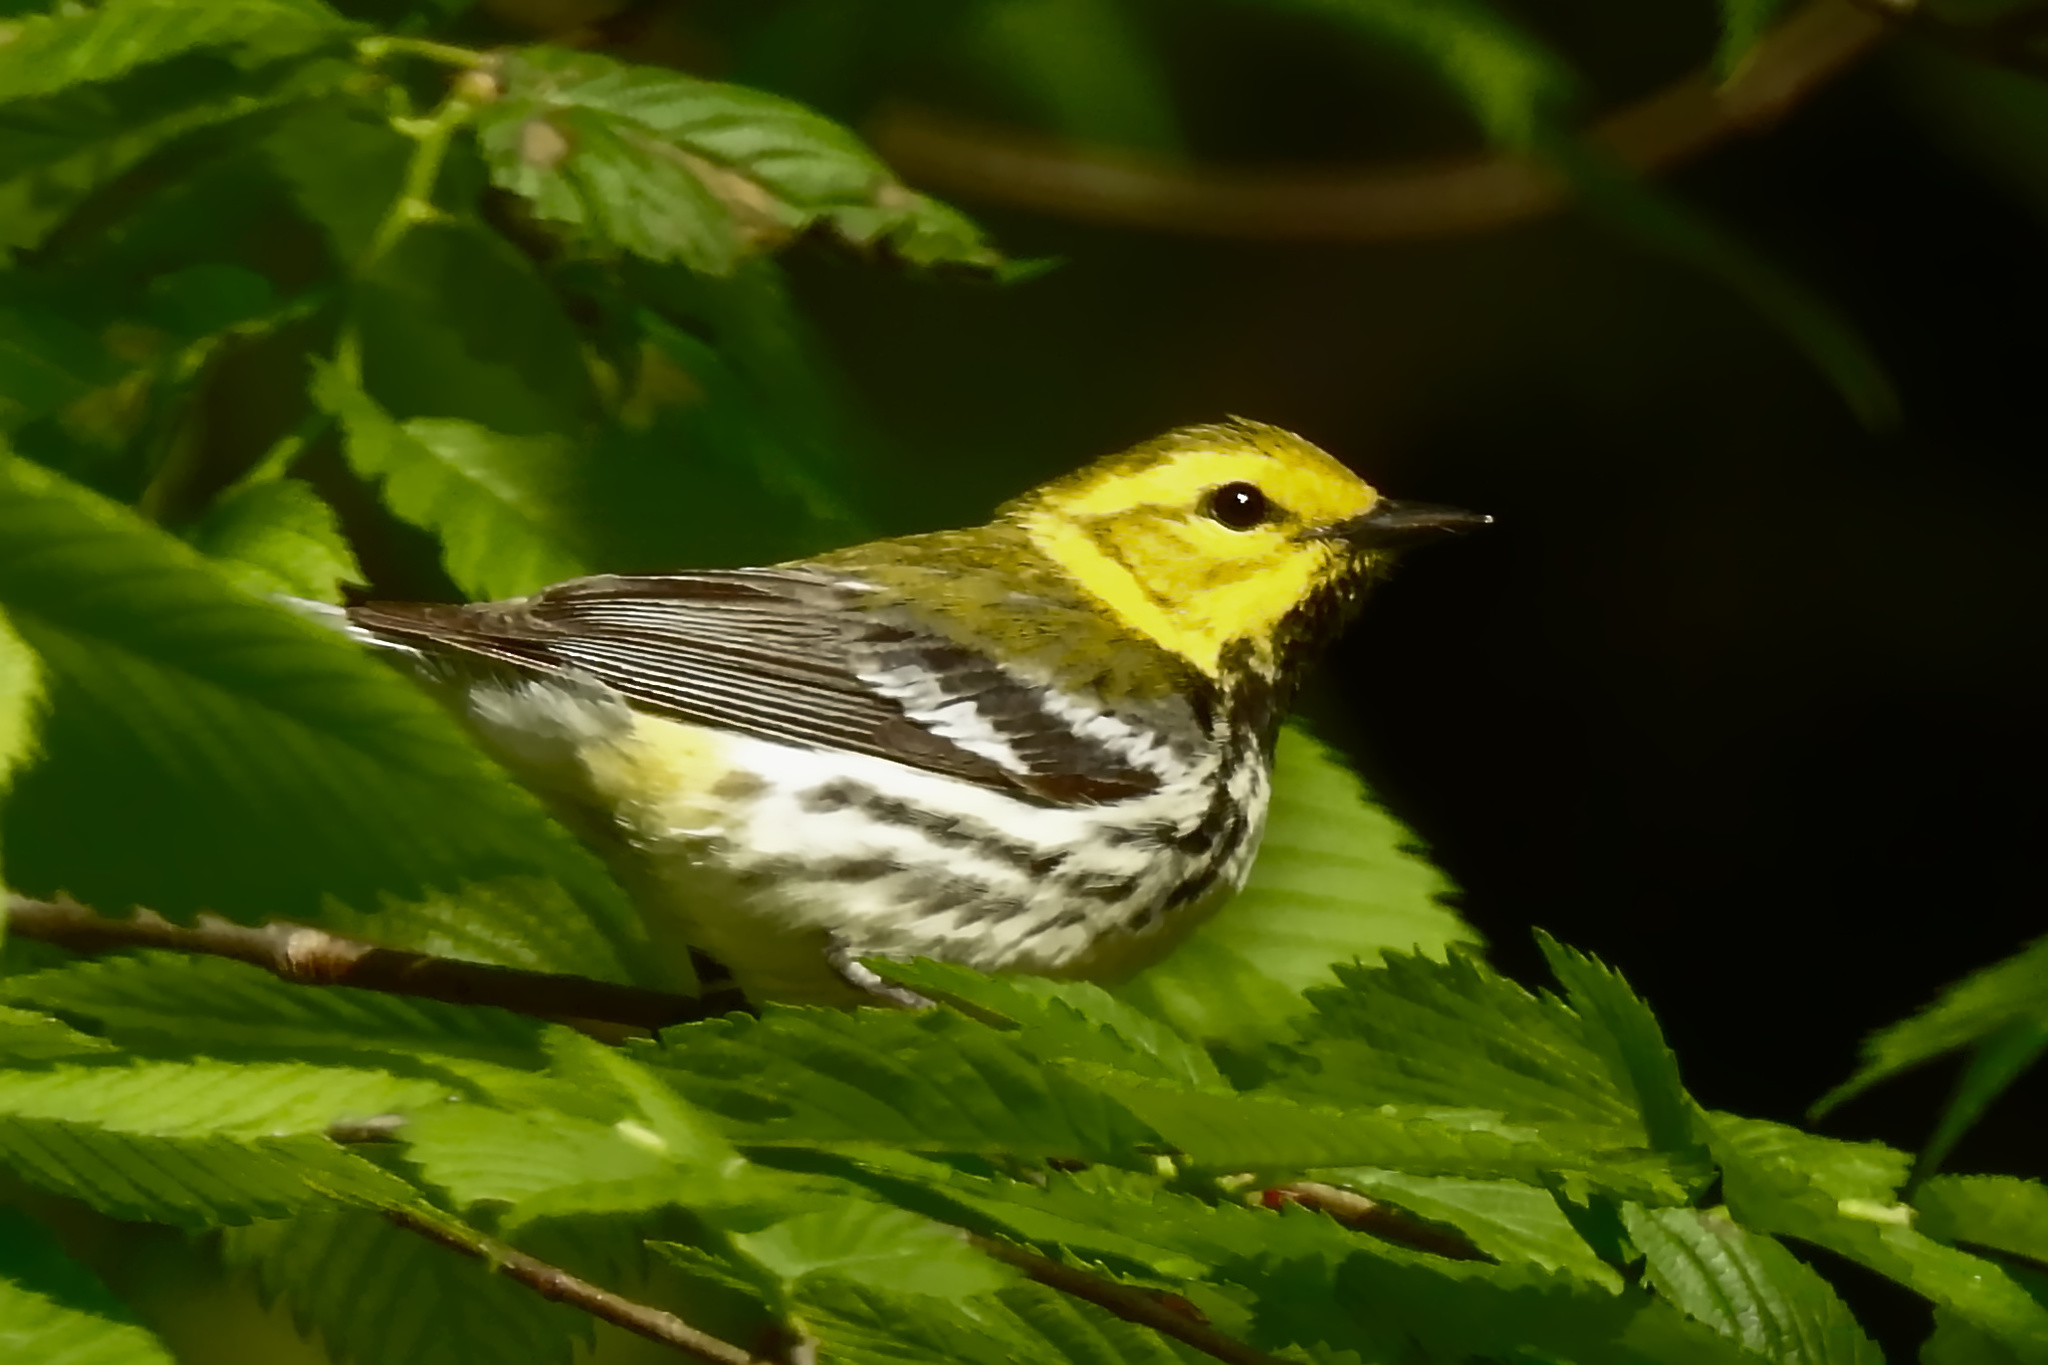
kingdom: Animalia
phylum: Chordata
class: Aves
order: Passeriformes
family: Parulidae
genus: Setophaga
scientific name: Setophaga virens
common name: Black-throated green warbler
